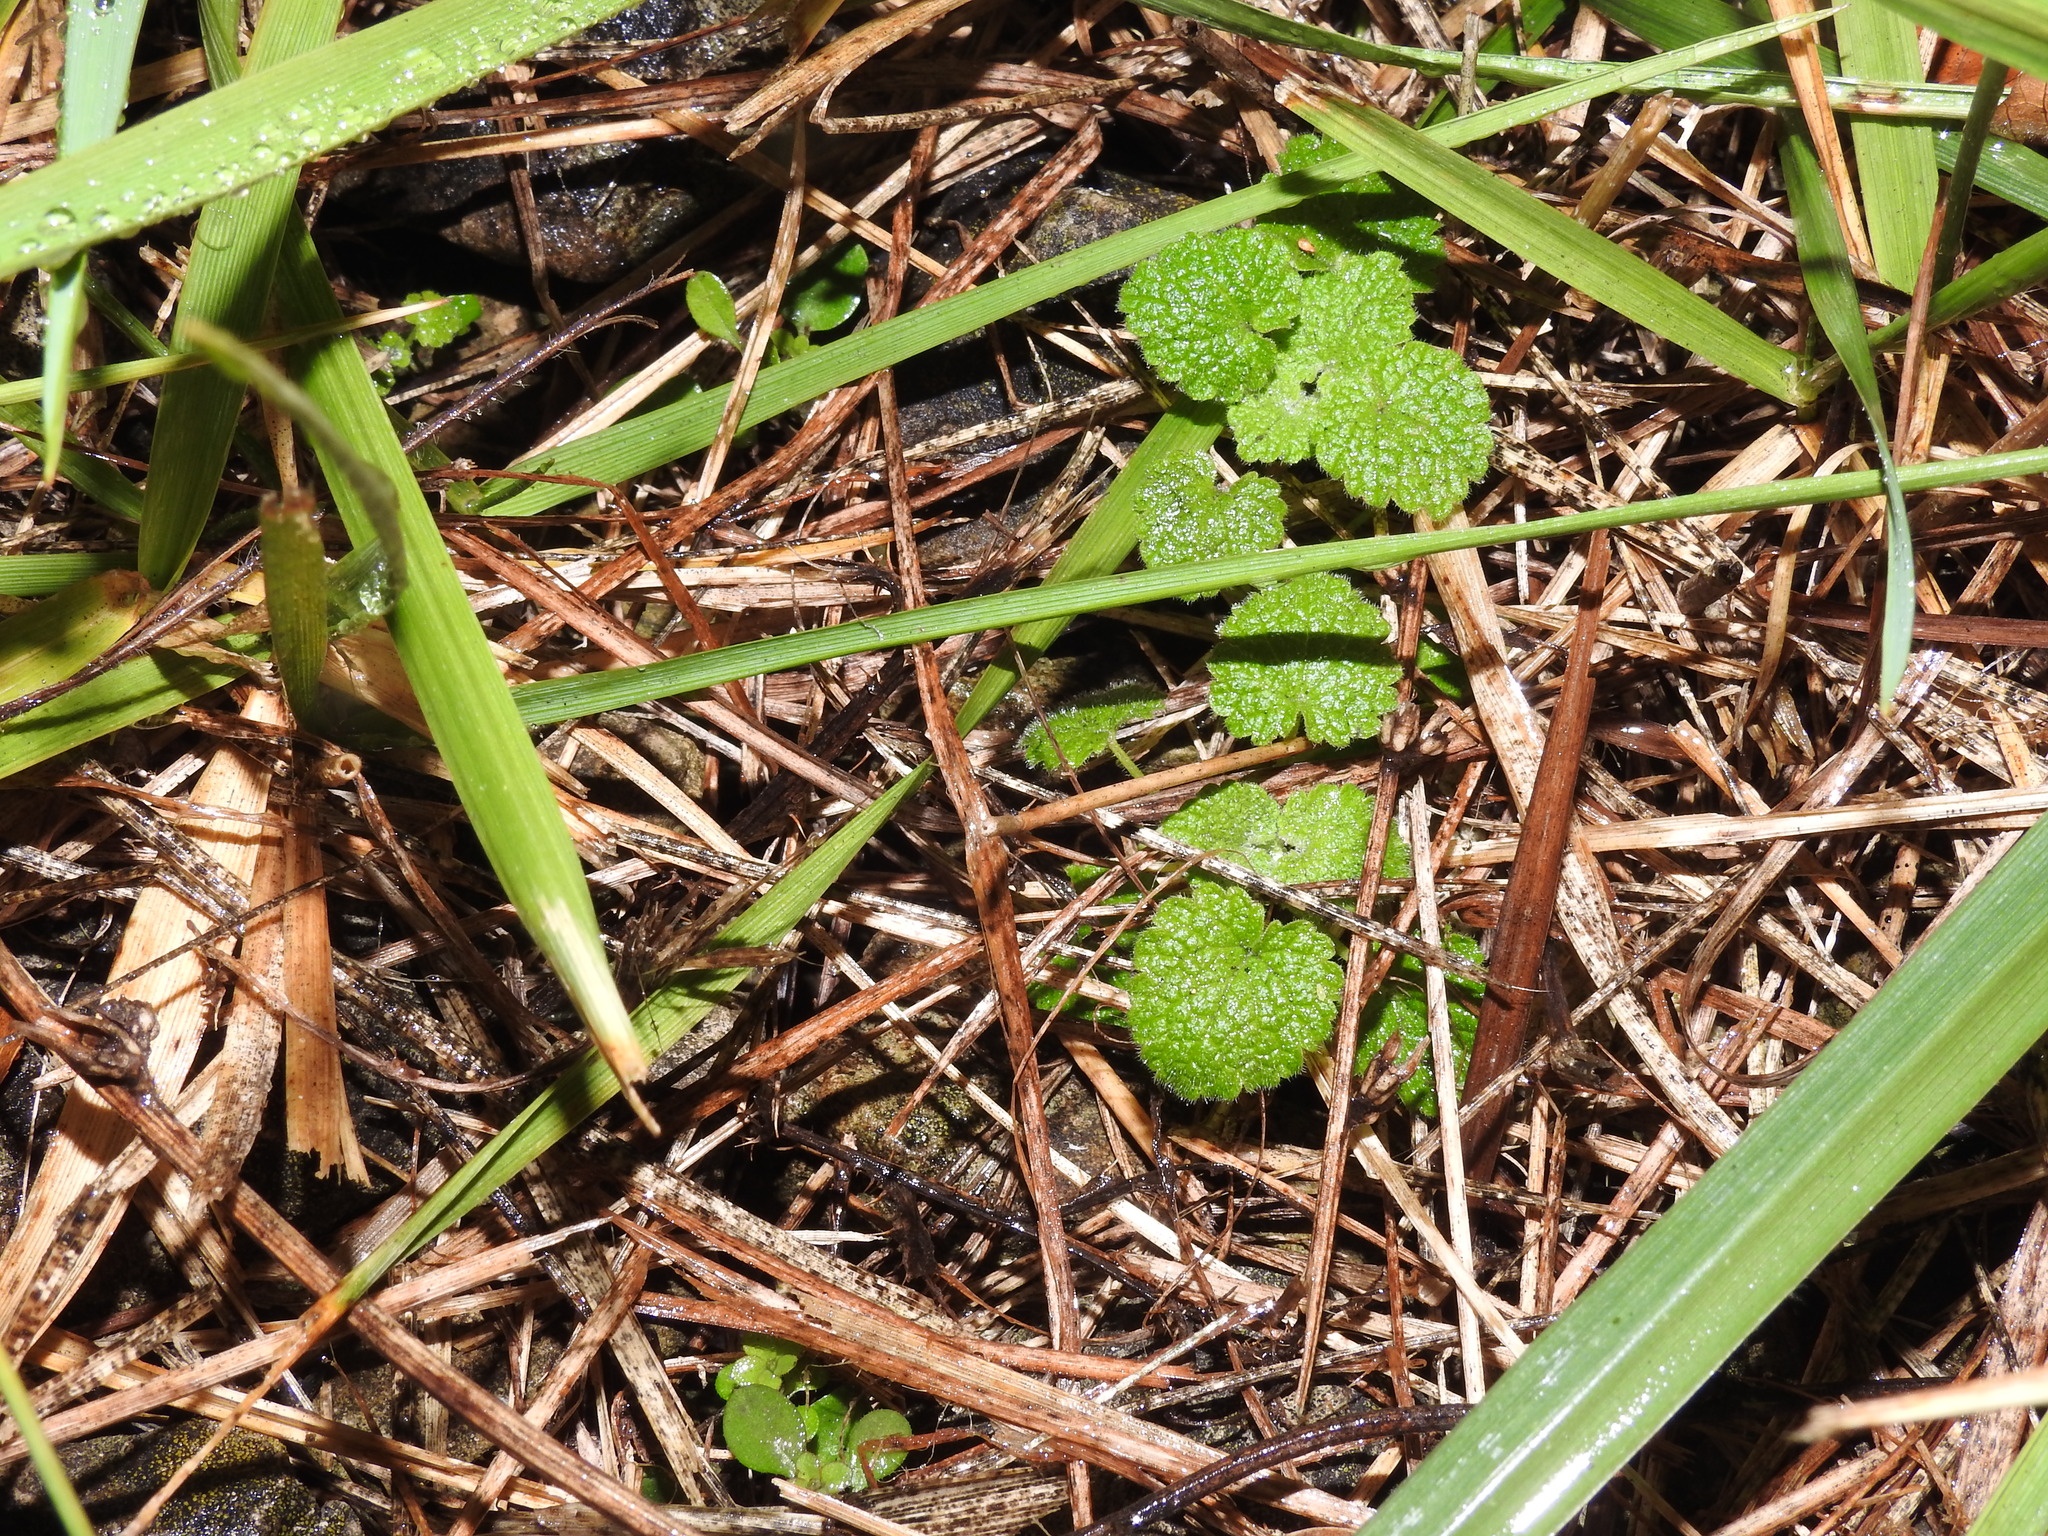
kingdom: Plantae
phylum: Tracheophyta
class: Magnoliopsida
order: Lamiales
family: Lamiaceae
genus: Lamium
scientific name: Lamium purpureum
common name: Red dead-nettle
